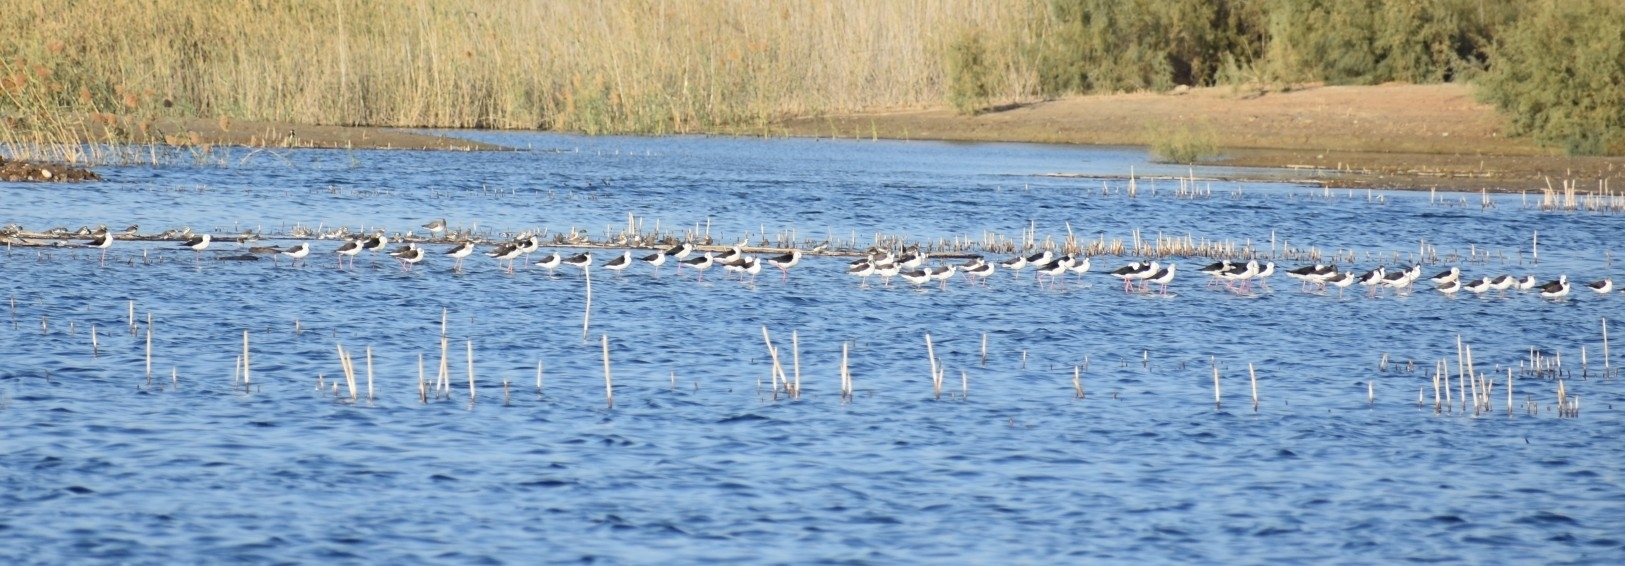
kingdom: Animalia
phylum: Chordata
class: Aves
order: Charadriiformes
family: Recurvirostridae
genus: Himantopus
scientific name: Himantopus himantopus
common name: Black-winged stilt
